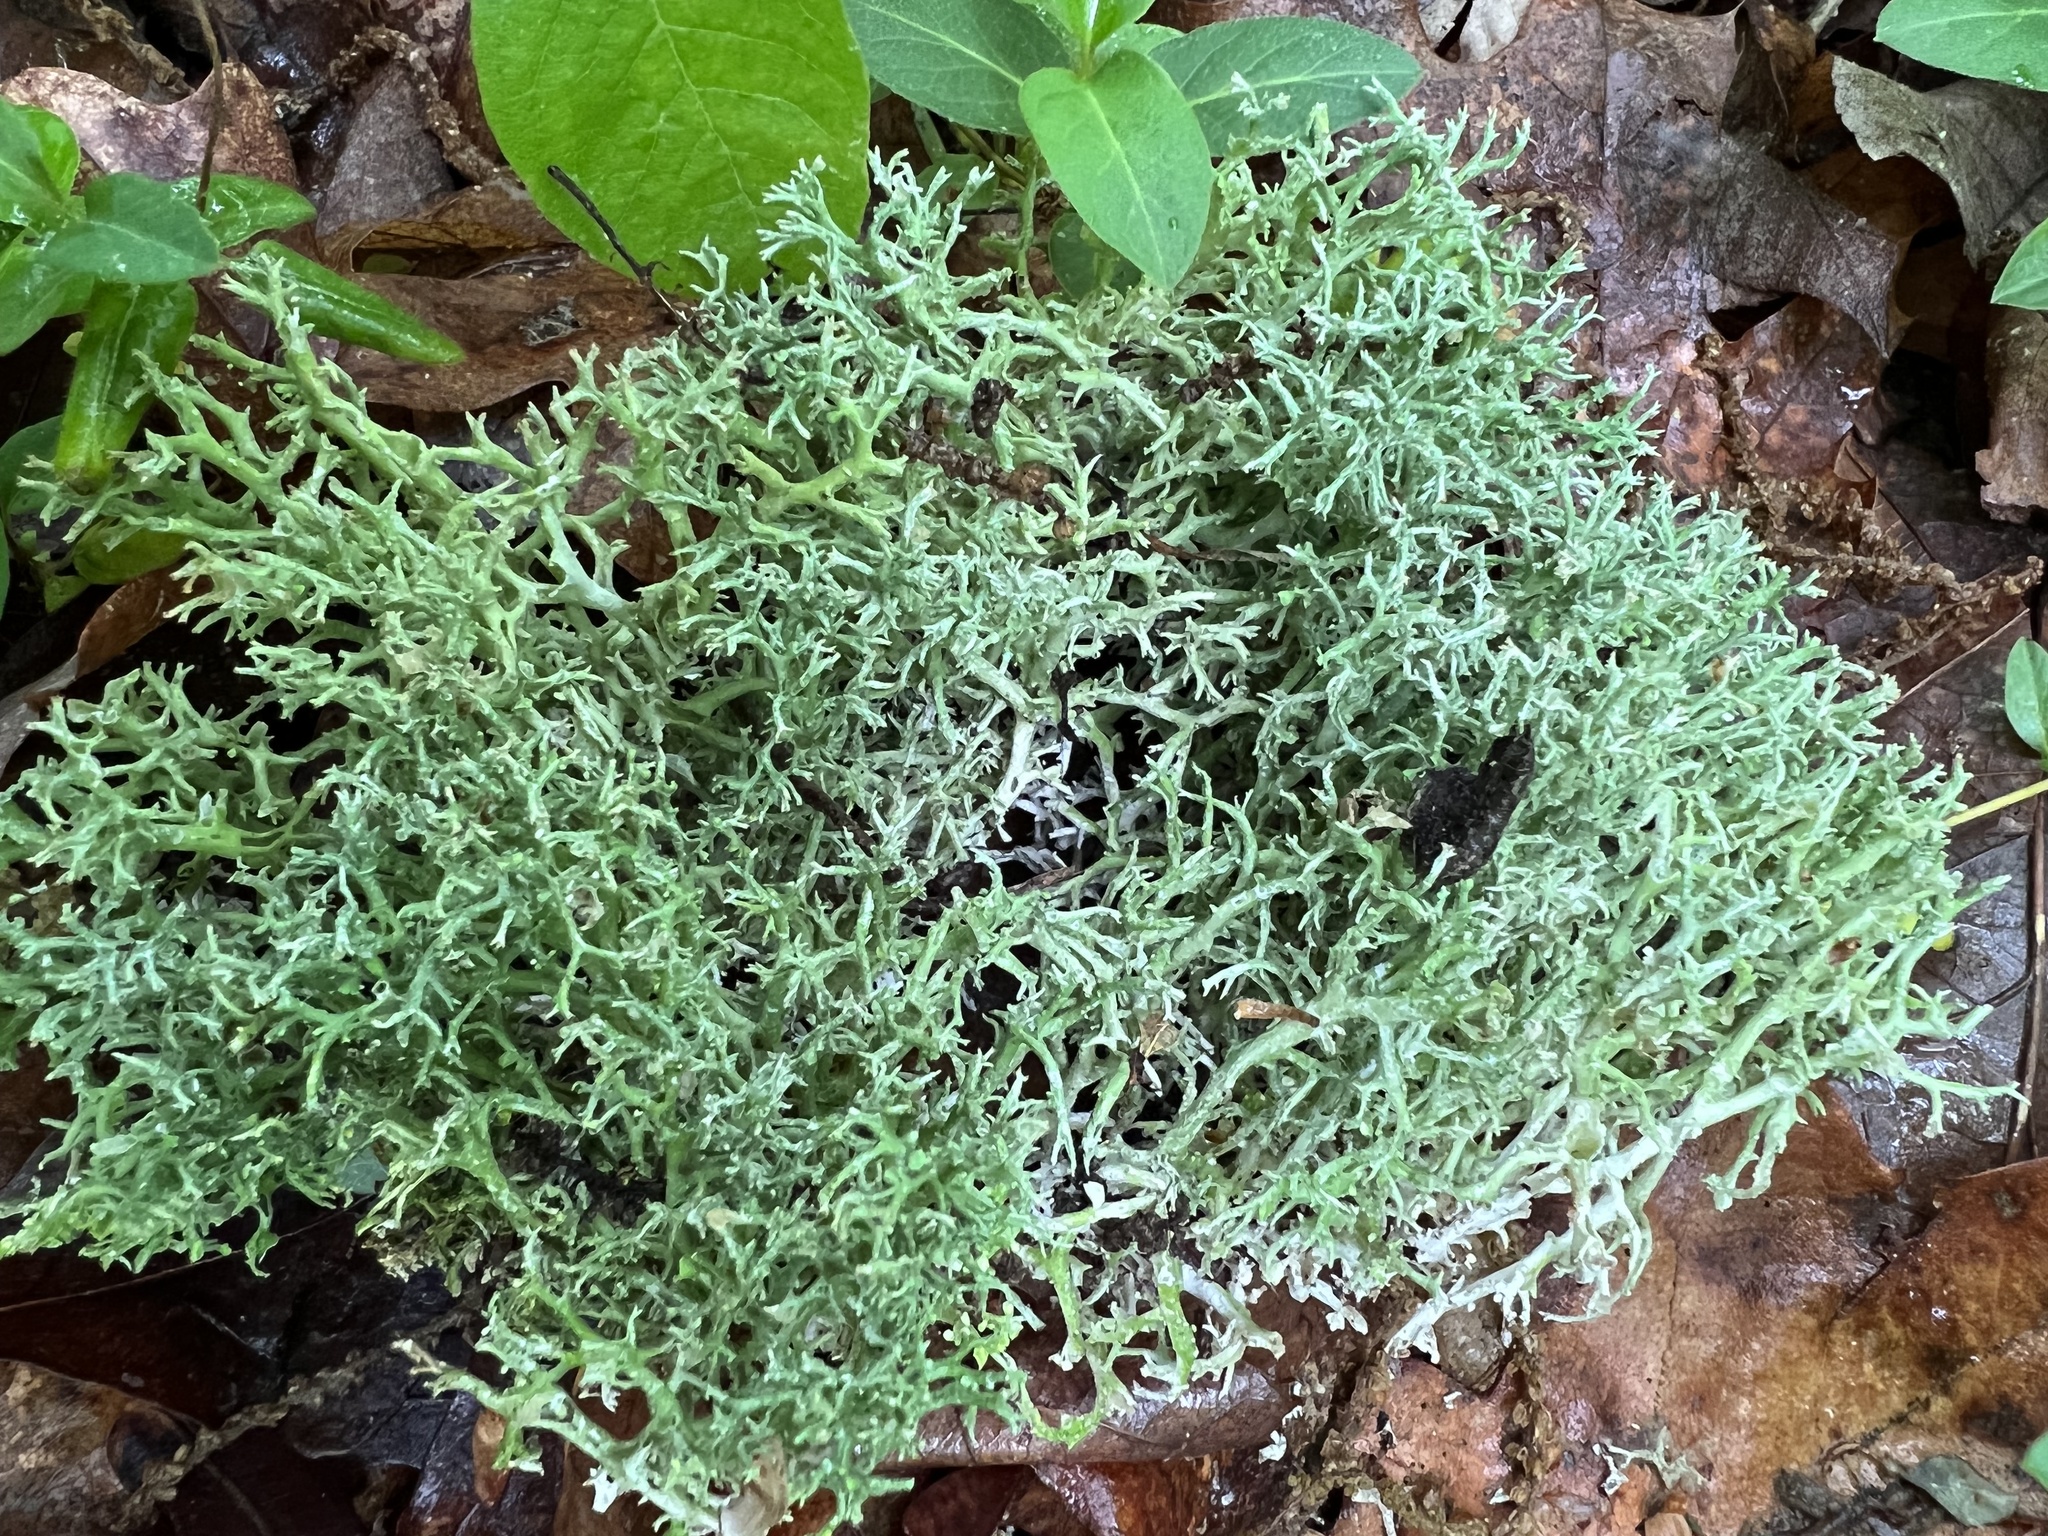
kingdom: Fungi
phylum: Ascomycota
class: Lecanoromycetes
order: Lecanorales
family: Cladoniaceae
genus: Cladonia
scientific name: Cladonia furcata
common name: Many-forked cladonia
